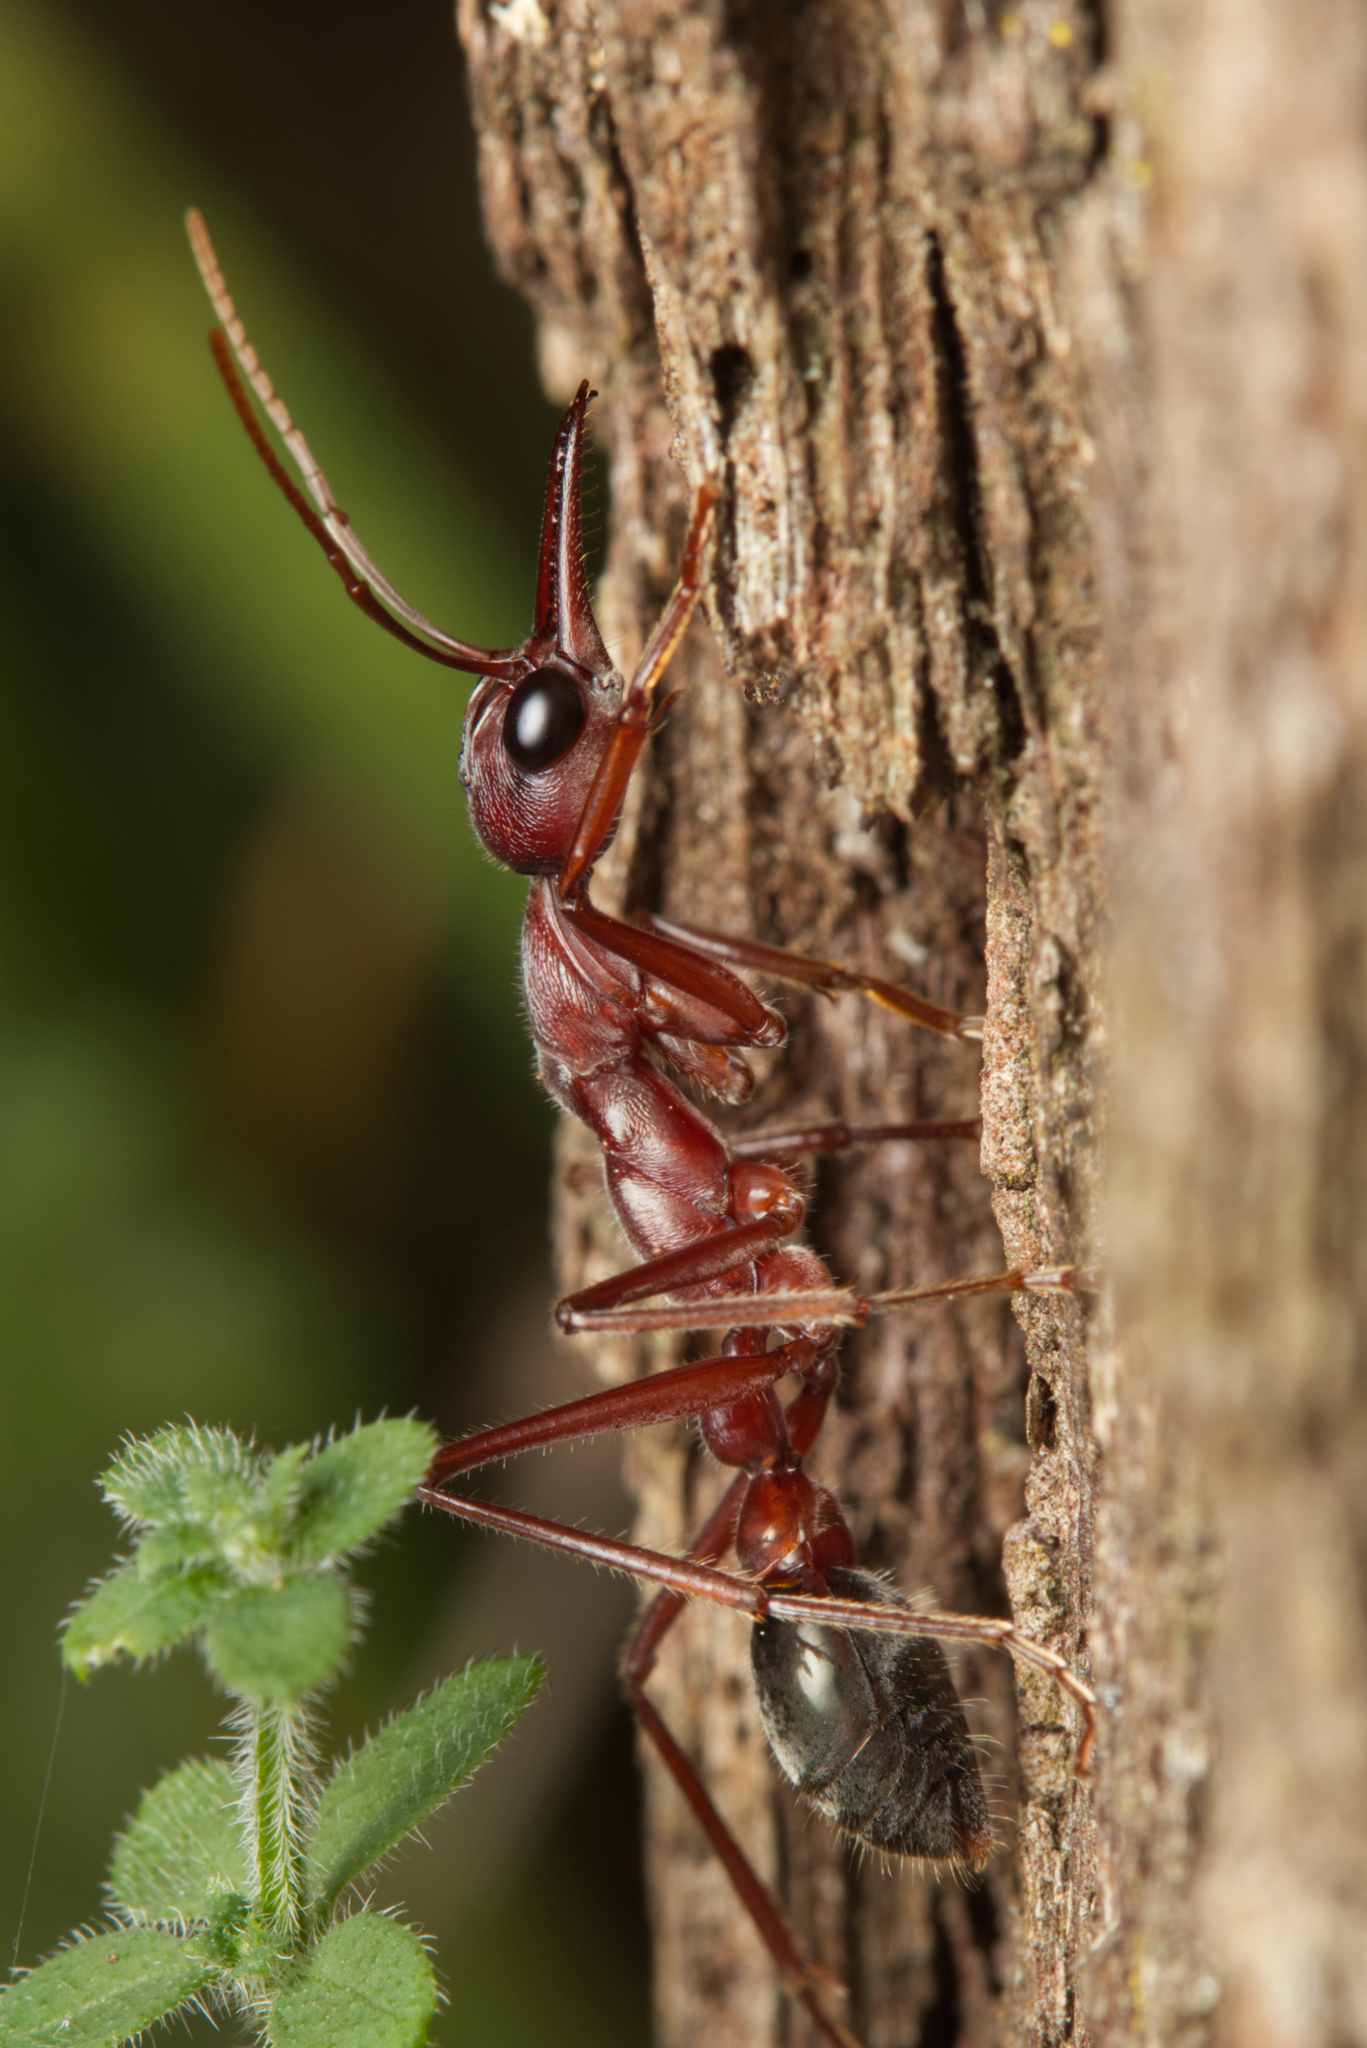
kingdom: Animalia
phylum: Arthropoda
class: Insecta
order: Hymenoptera
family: Formicidae
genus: Myrmecia
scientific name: Myrmecia brevinoda
